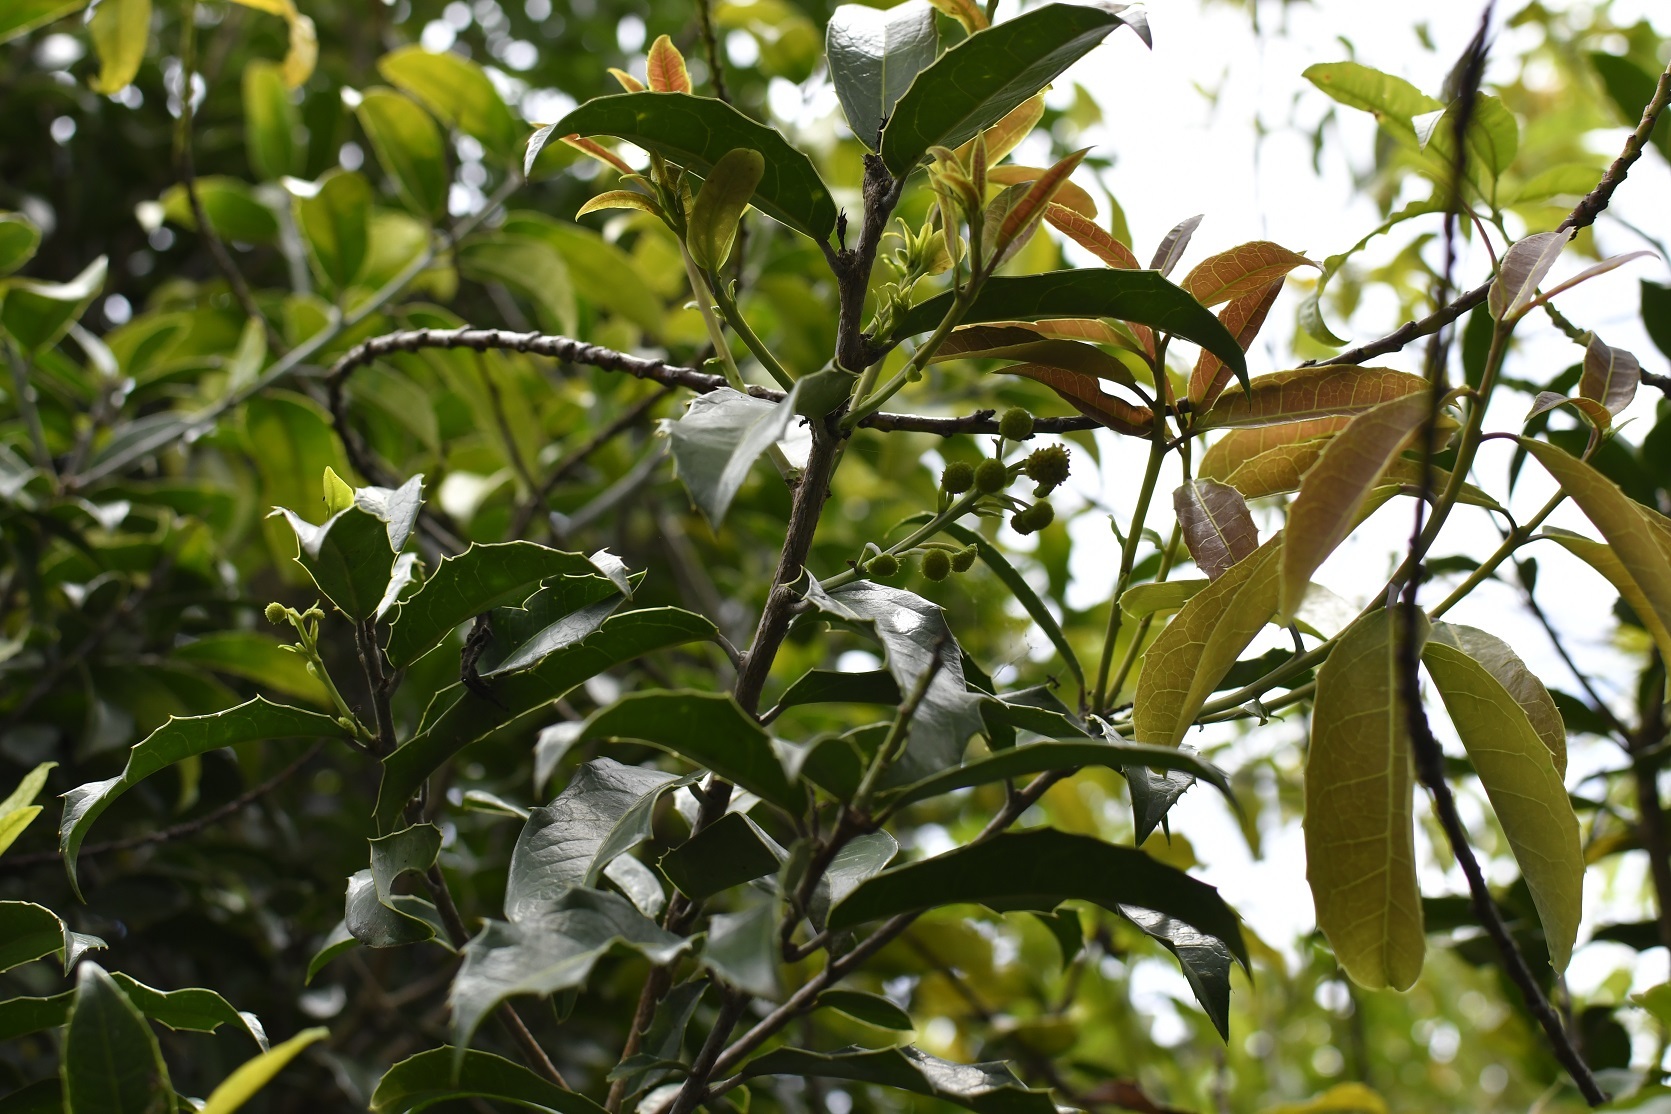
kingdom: Plantae
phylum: Tracheophyta
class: Magnoliopsida
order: Malpighiales
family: Salicaceae
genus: Olmediella
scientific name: Olmediella betschleriana
